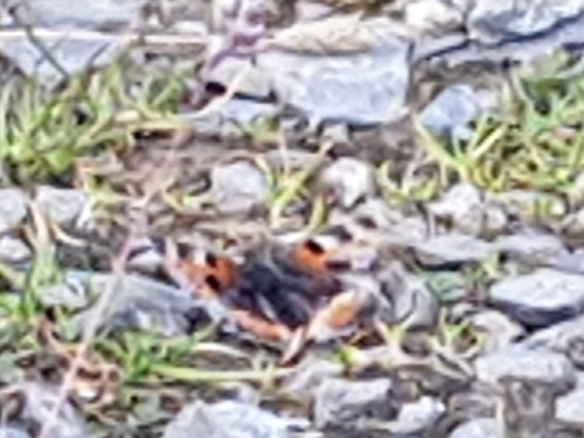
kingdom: Animalia
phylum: Arthropoda
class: Insecta
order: Lepidoptera
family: Nymphalidae
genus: Aglais
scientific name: Aglais urticae
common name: Small tortoiseshell
